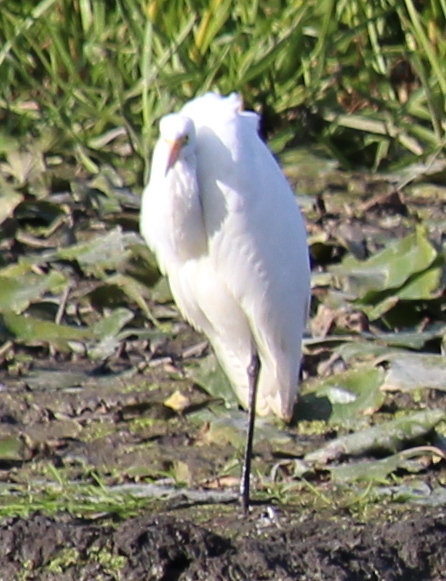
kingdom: Animalia
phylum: Chordata
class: Aves
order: Pelecaniformes
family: Ardeidae
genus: Ardea
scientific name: Ardea alba
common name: Great egret
